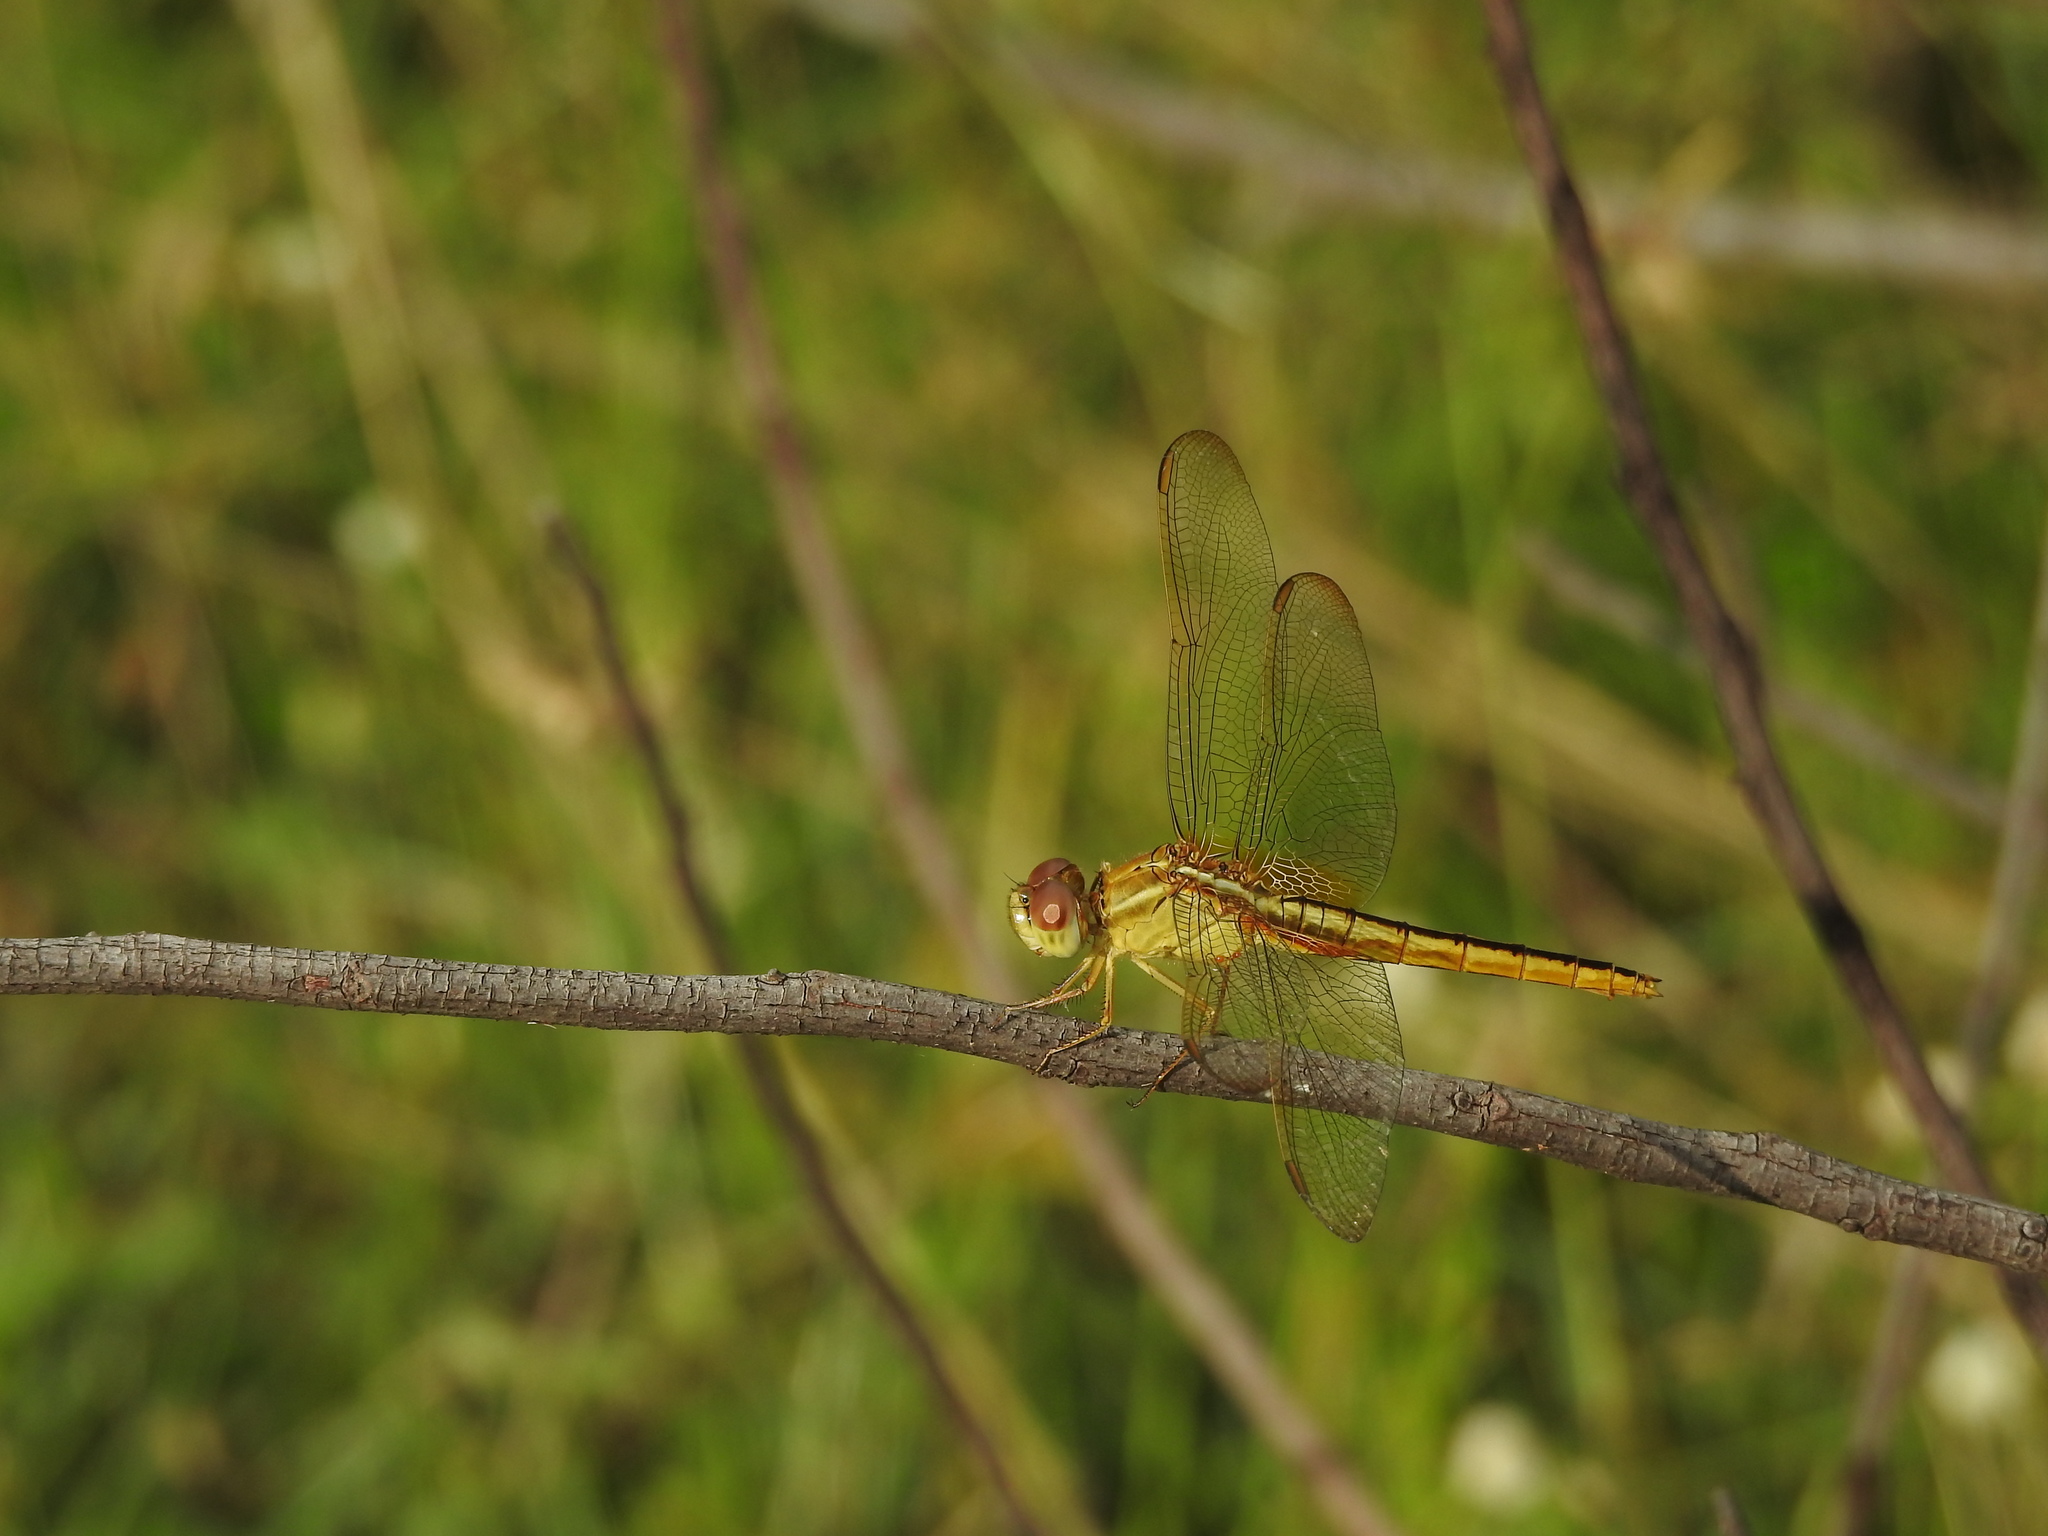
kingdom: Animalia
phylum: Arthropoda
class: Insecta
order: Odonata
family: Libellulidae
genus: Crocothemis
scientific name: Crocothemis servilia
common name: Scarlet skimmer
